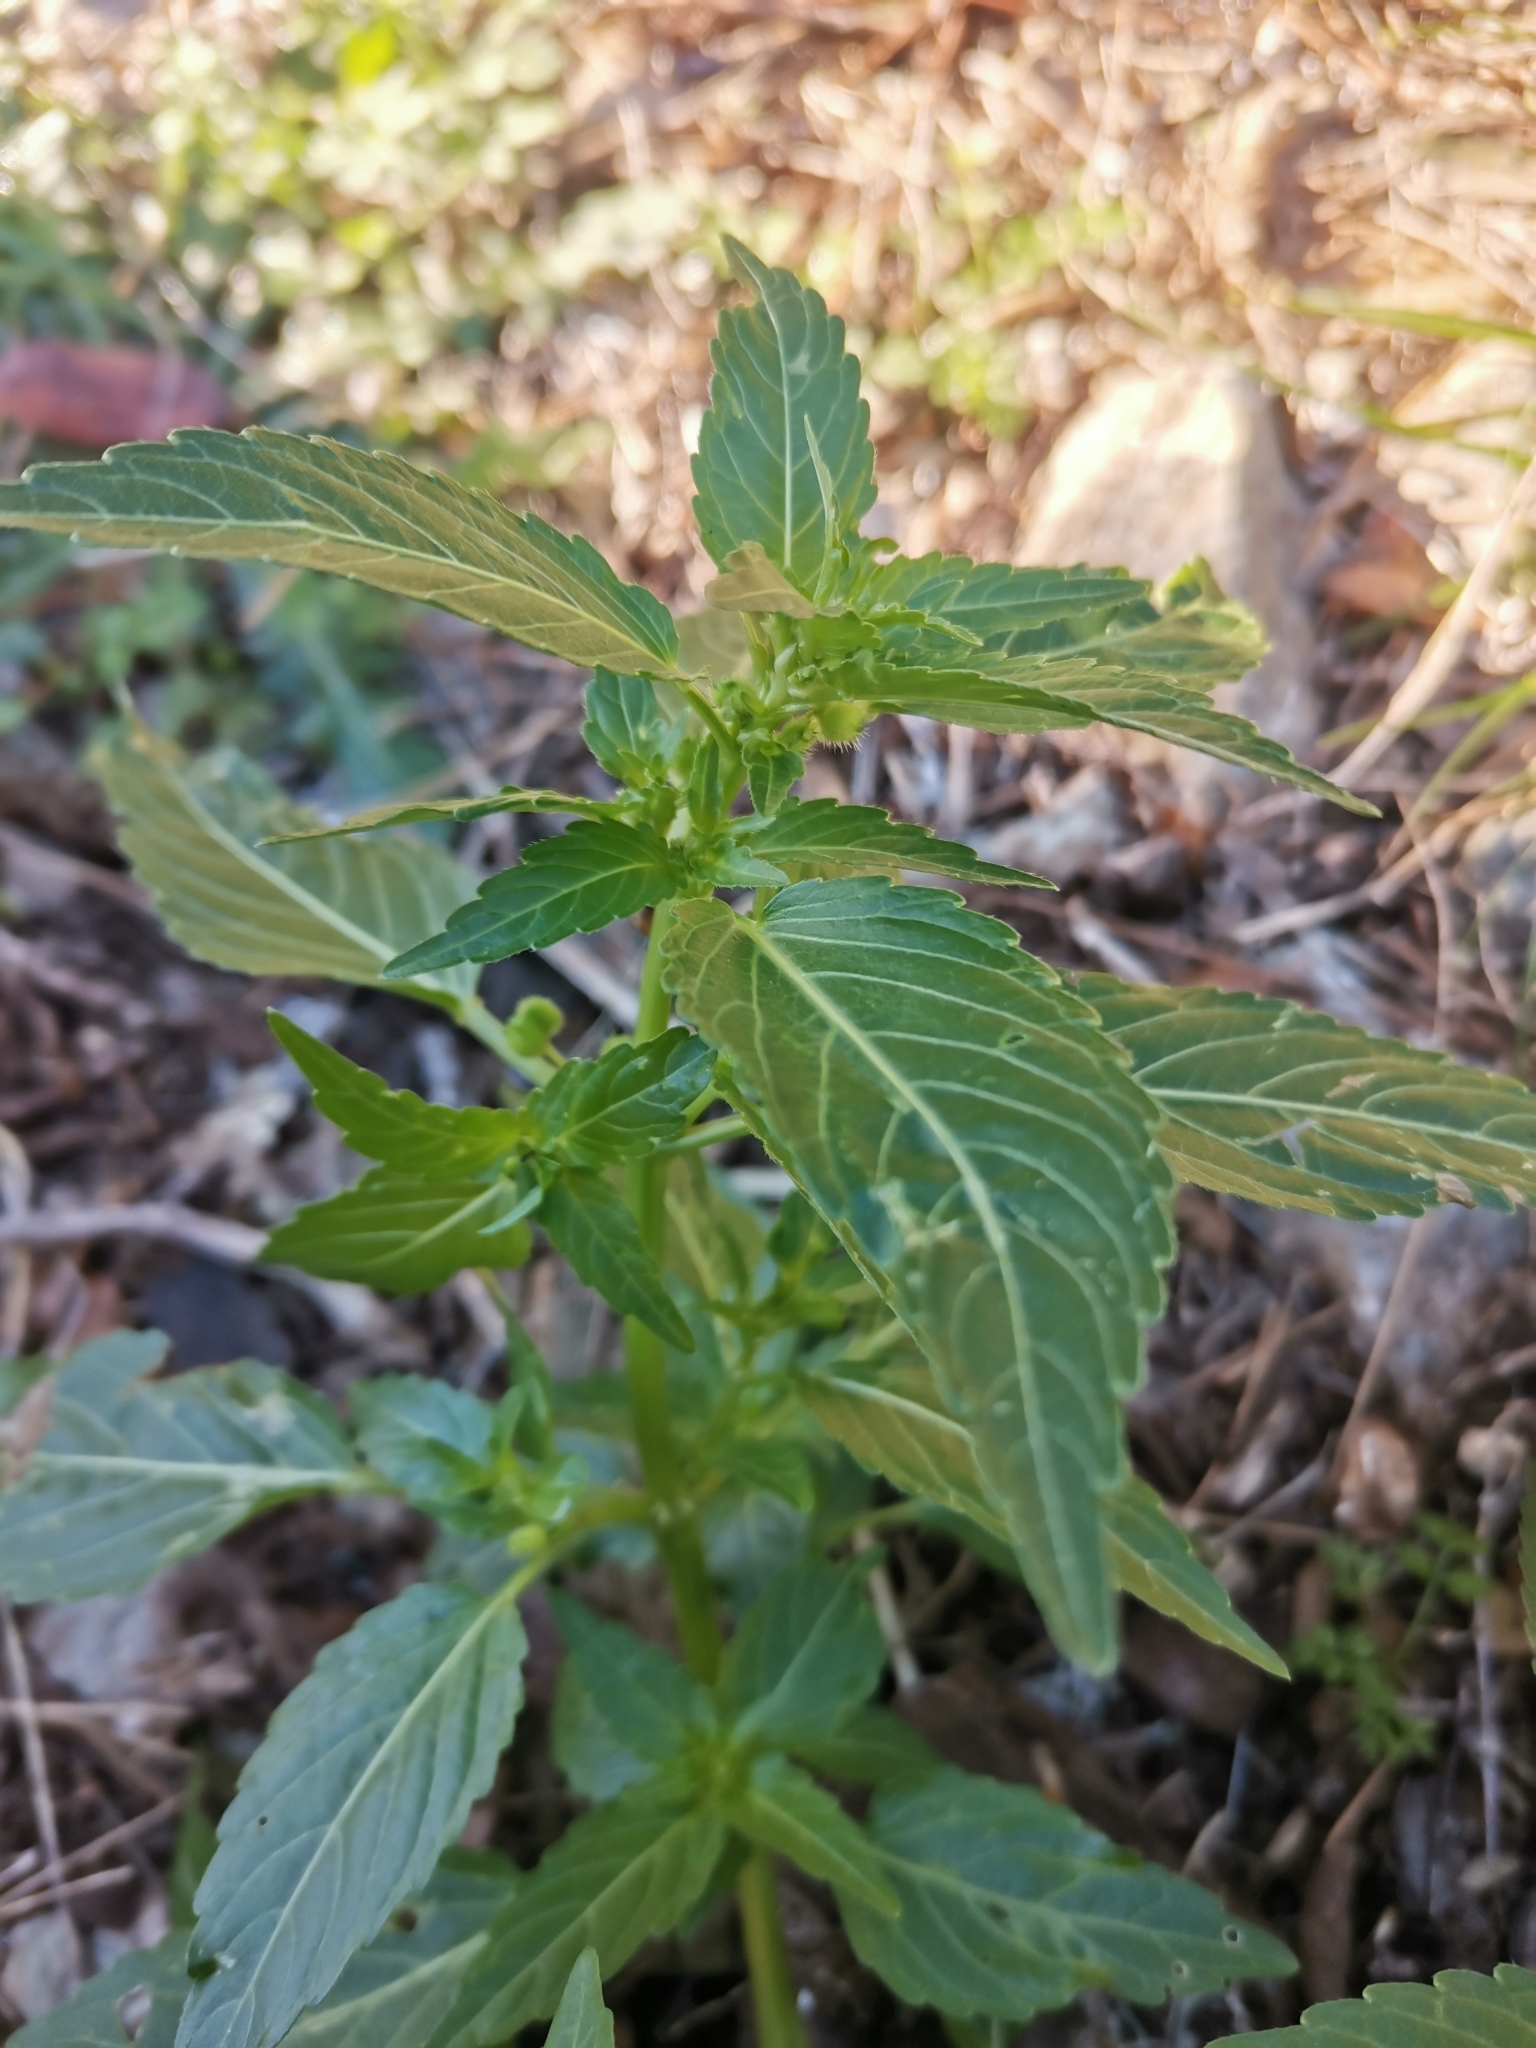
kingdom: Plantae
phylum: Tracheophyta
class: Magnoliopsida
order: Malpighiales
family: Euphorbiaceae
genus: Mercurialis
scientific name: Mercurialis annua
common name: Annual mercury
